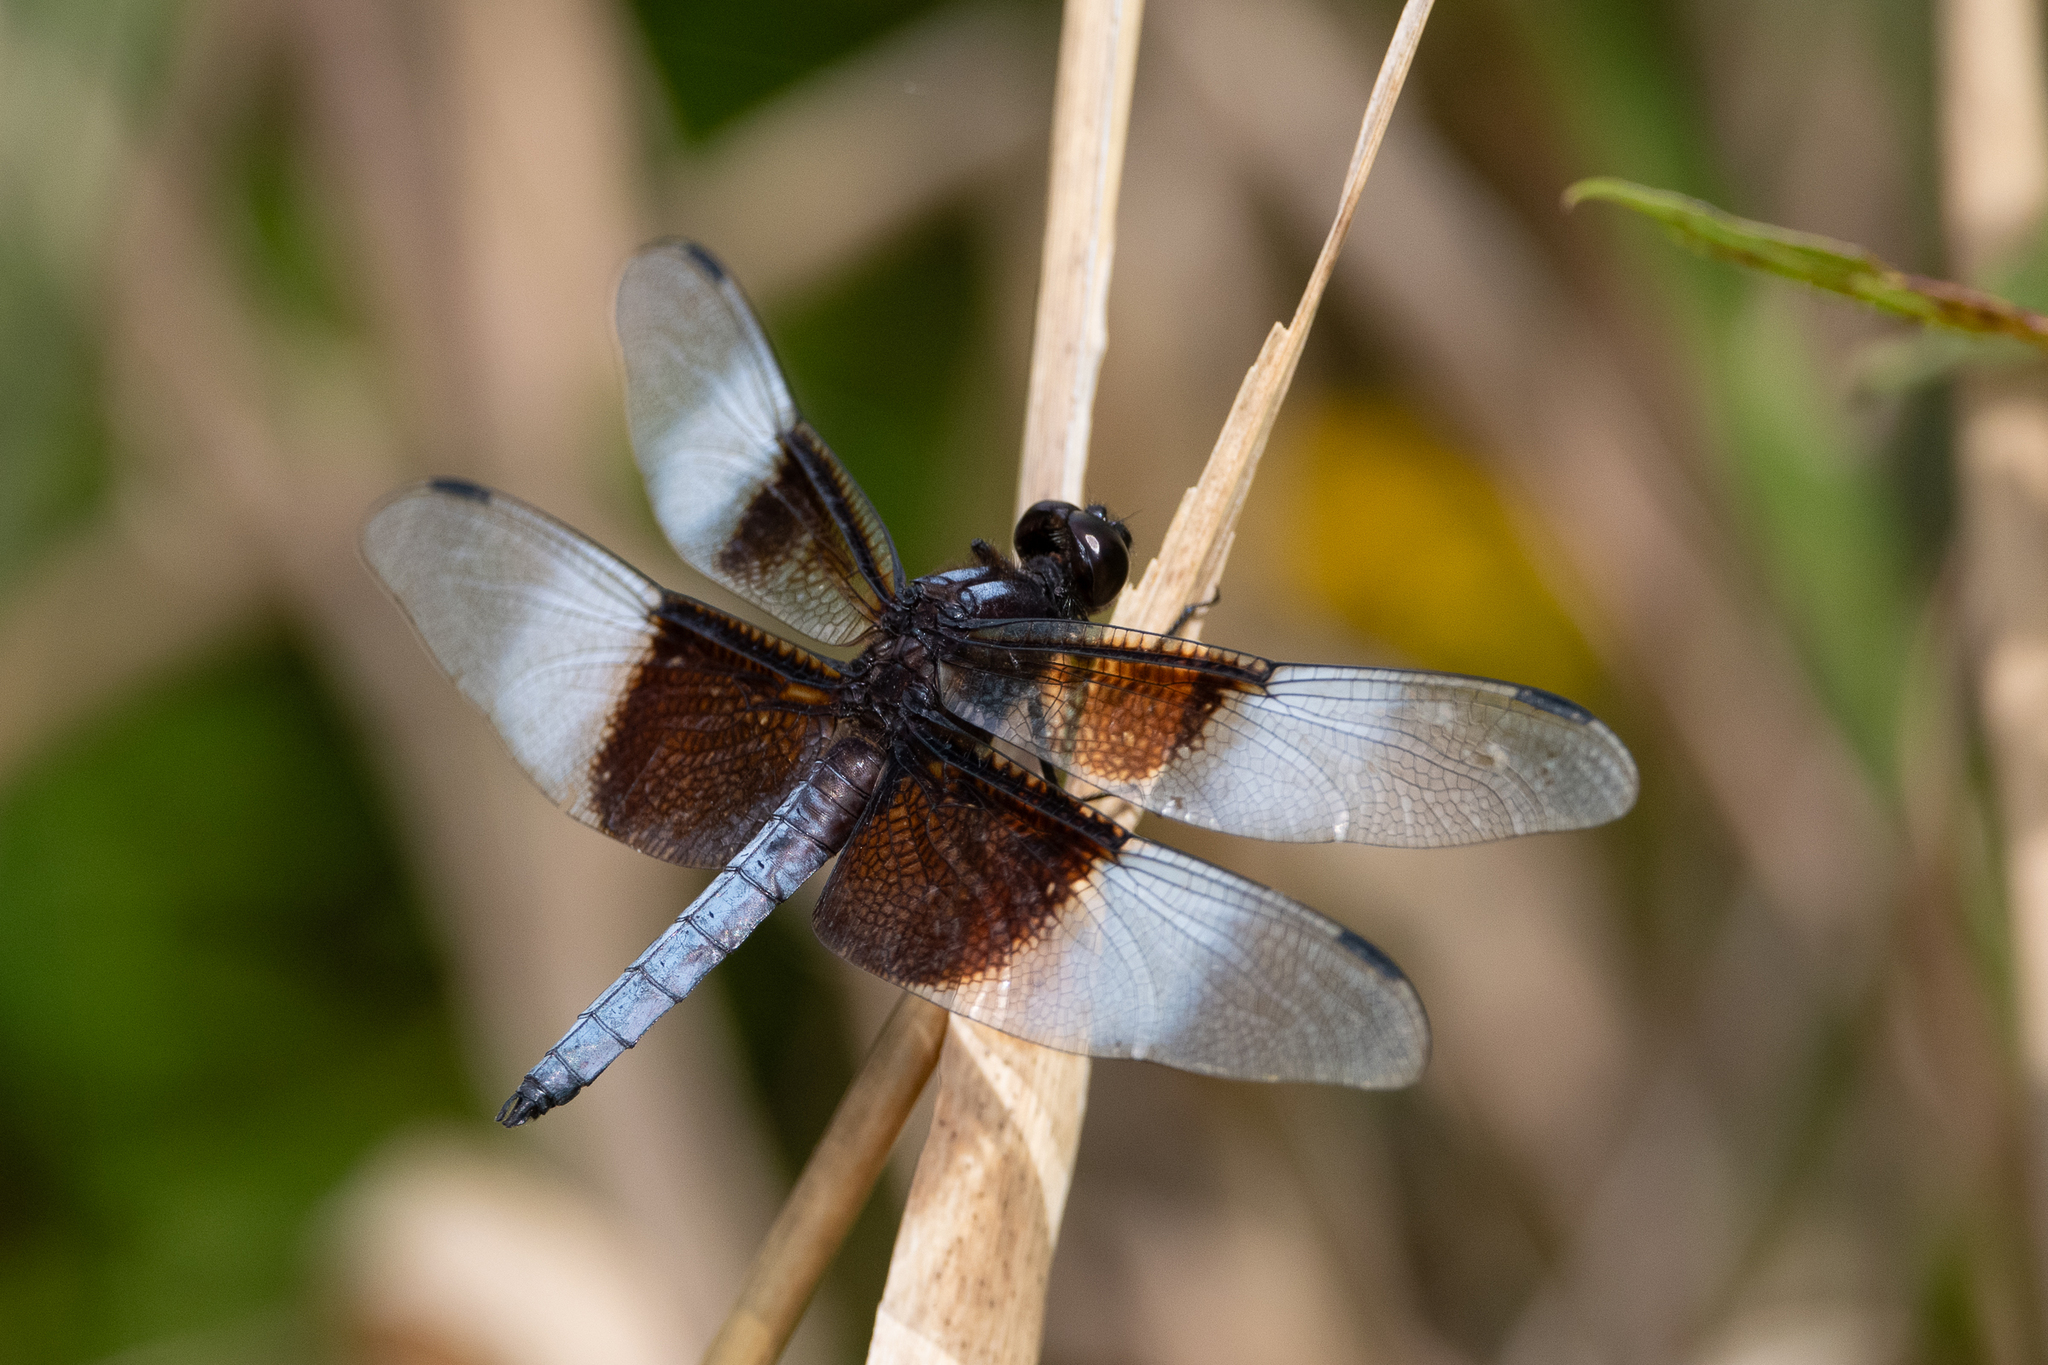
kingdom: Animalia
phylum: Arthropoda
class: Insecta
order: Odonata
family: Libellulidae
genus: Libellula
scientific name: Libellula luctuosa
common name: Widow skimmer
